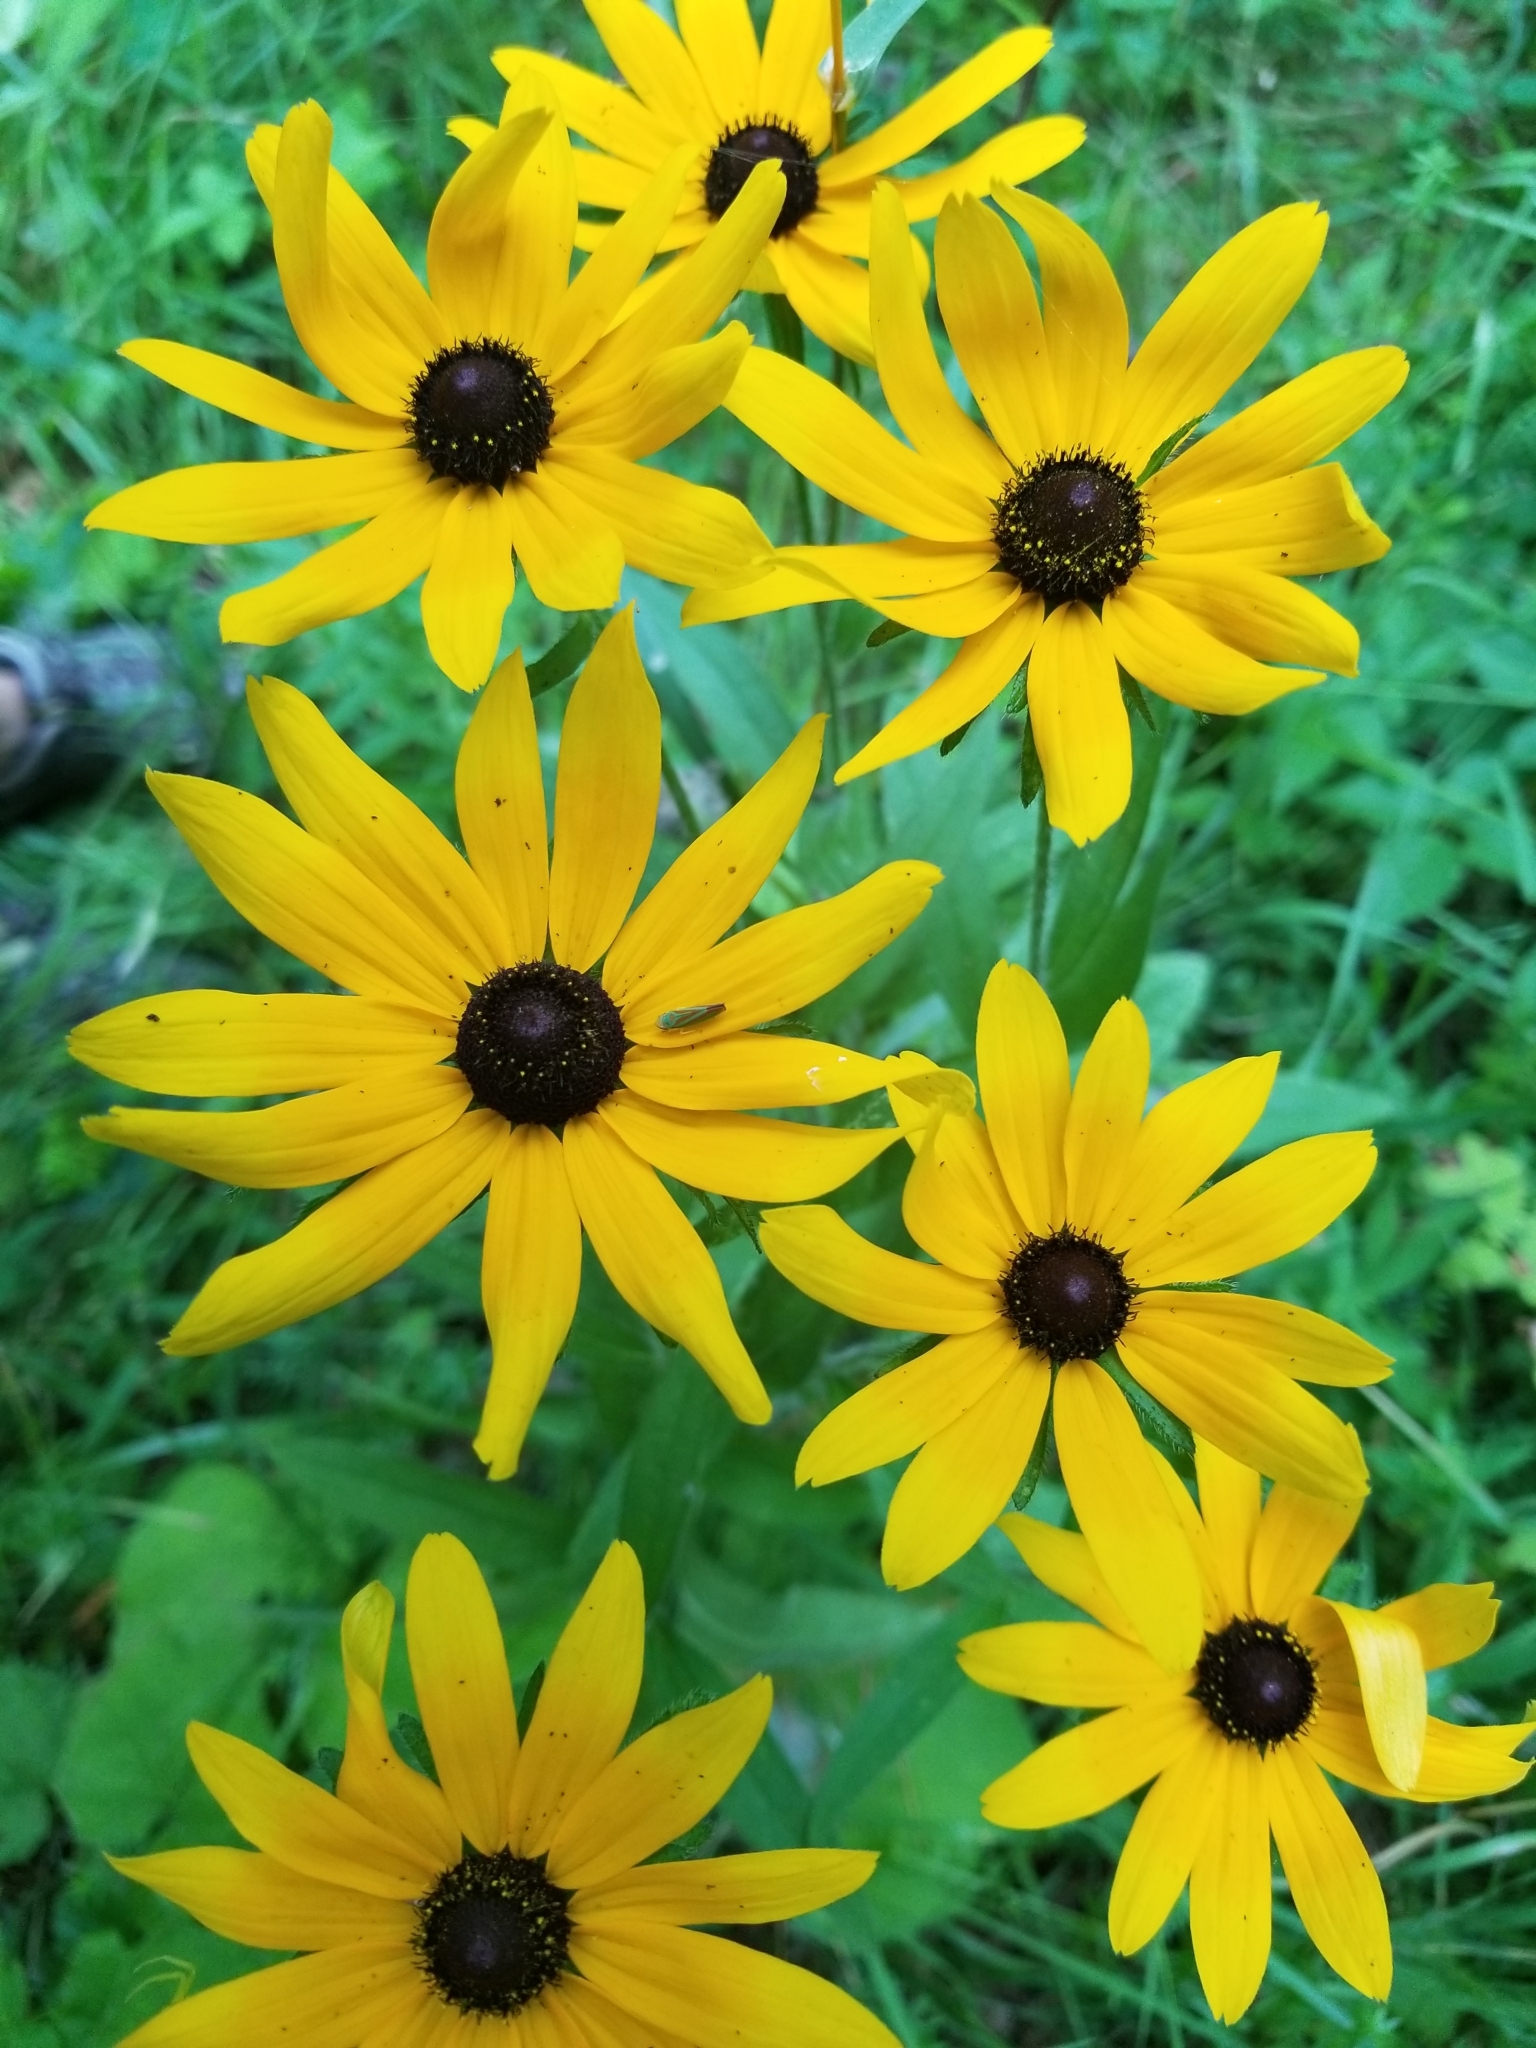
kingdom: Plantae
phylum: Tracheophyta
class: Magnoliopsida
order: Asterales
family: Asteraceae
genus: Rudbeckia
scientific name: Rudbeckia hirta
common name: Black-eyed-susan
